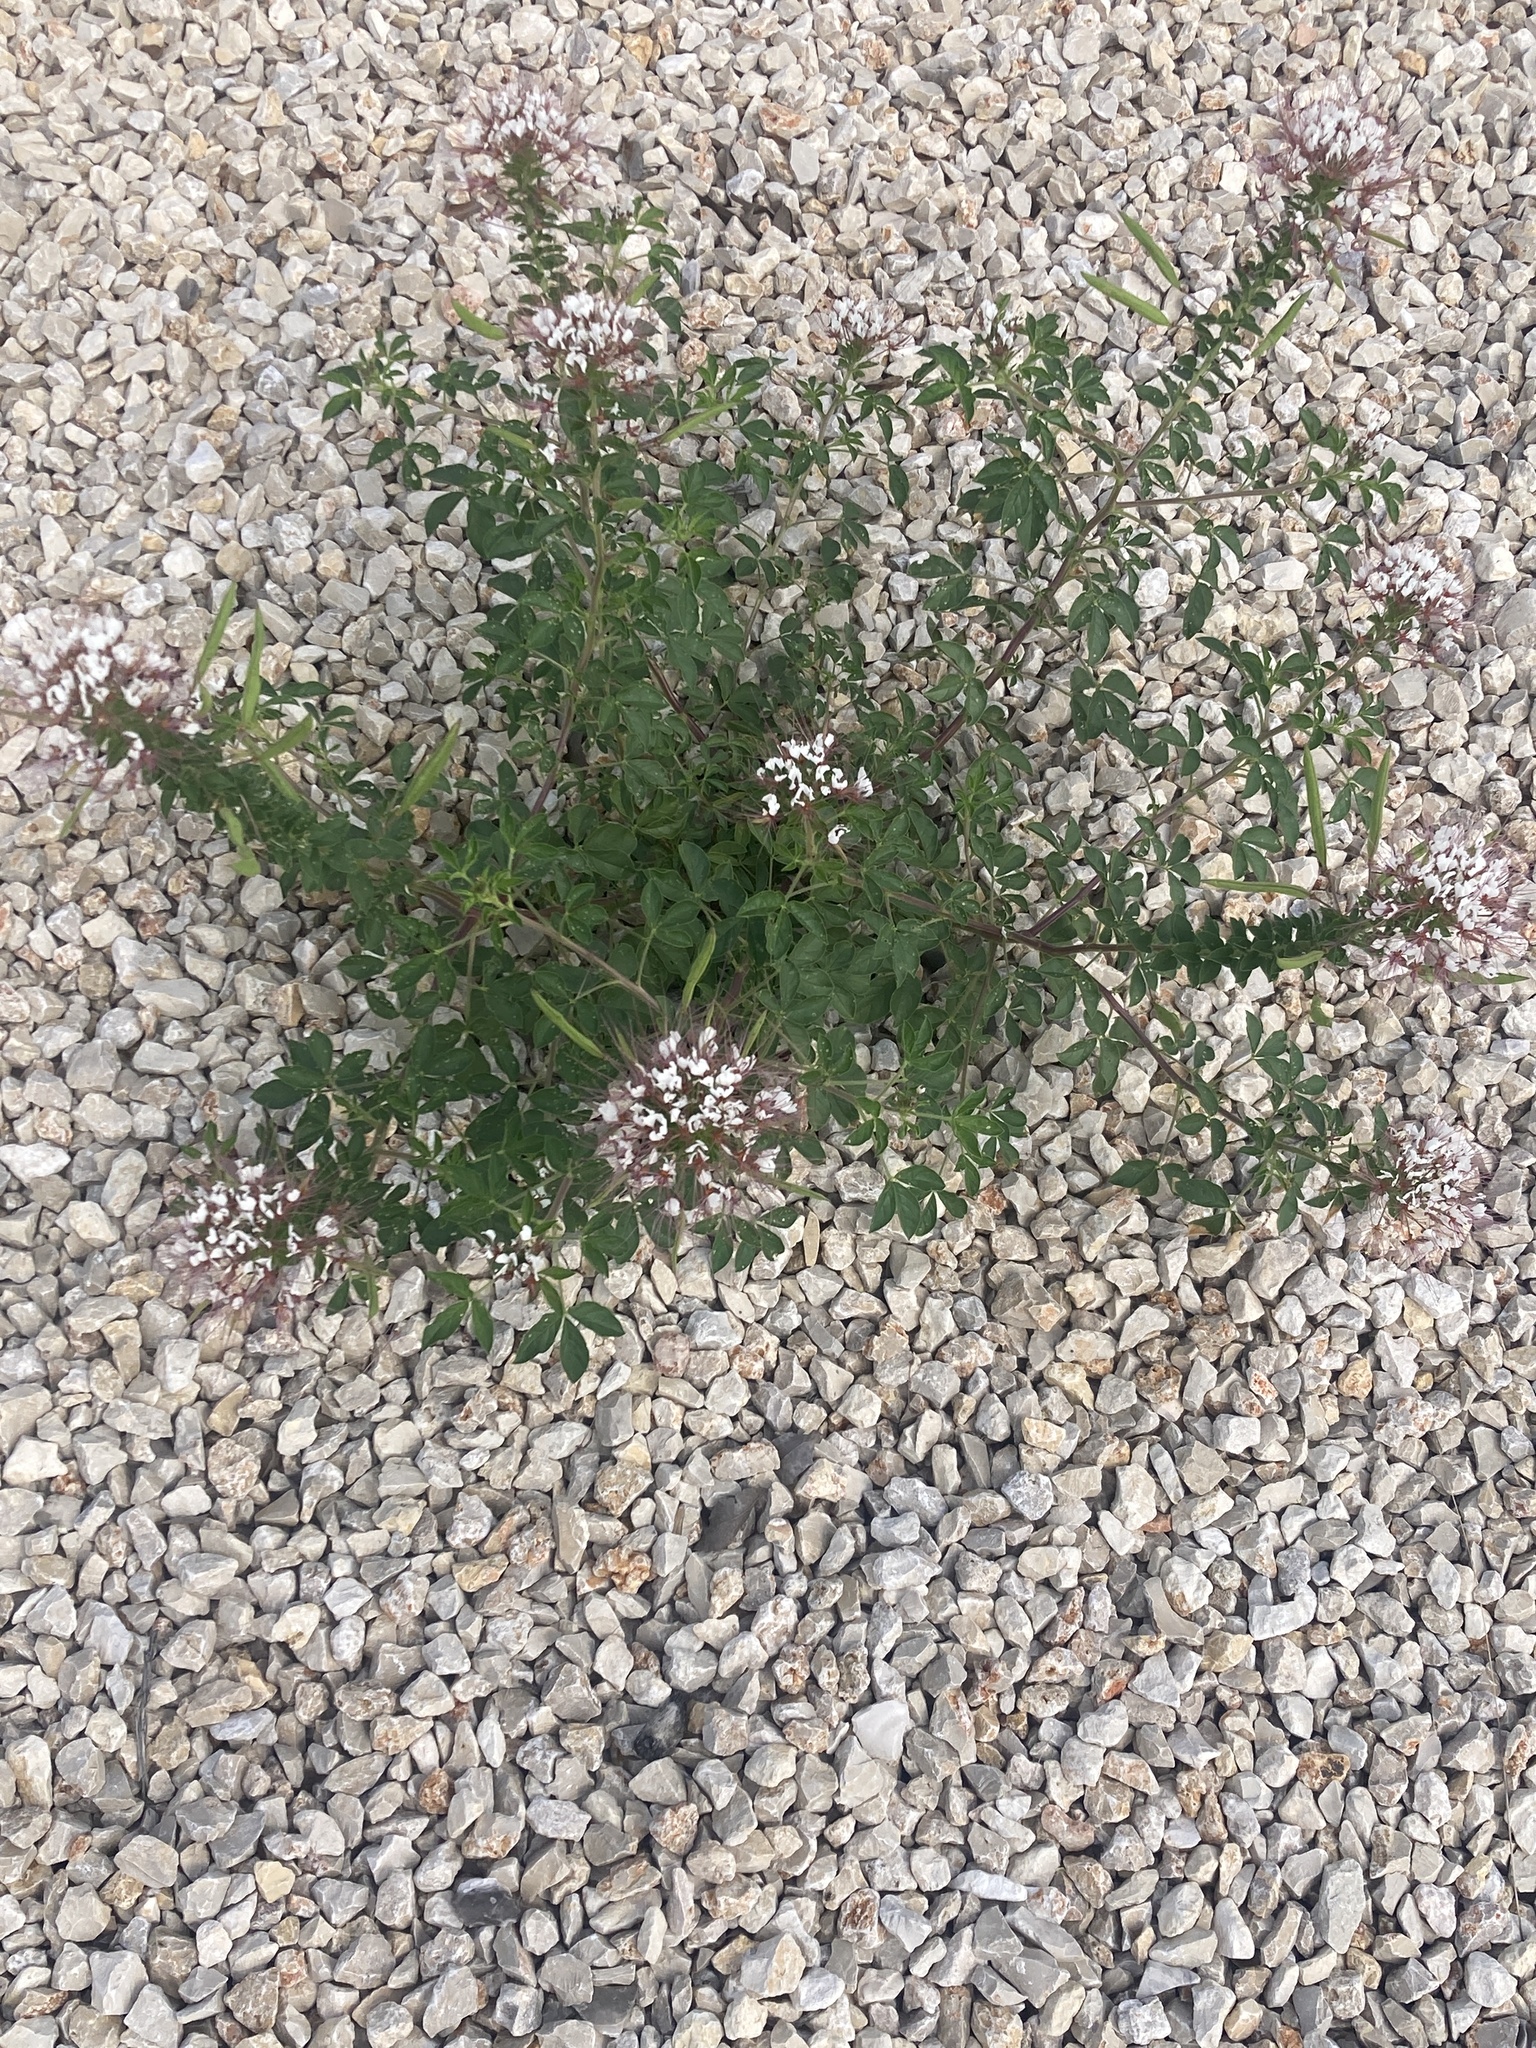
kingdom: Plantae
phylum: Tracheophyta
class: Magnoliopsida
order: Brassicales
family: Cleomaceae
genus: Polanisia
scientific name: Polanisia dodecandra
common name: Clammyweed
